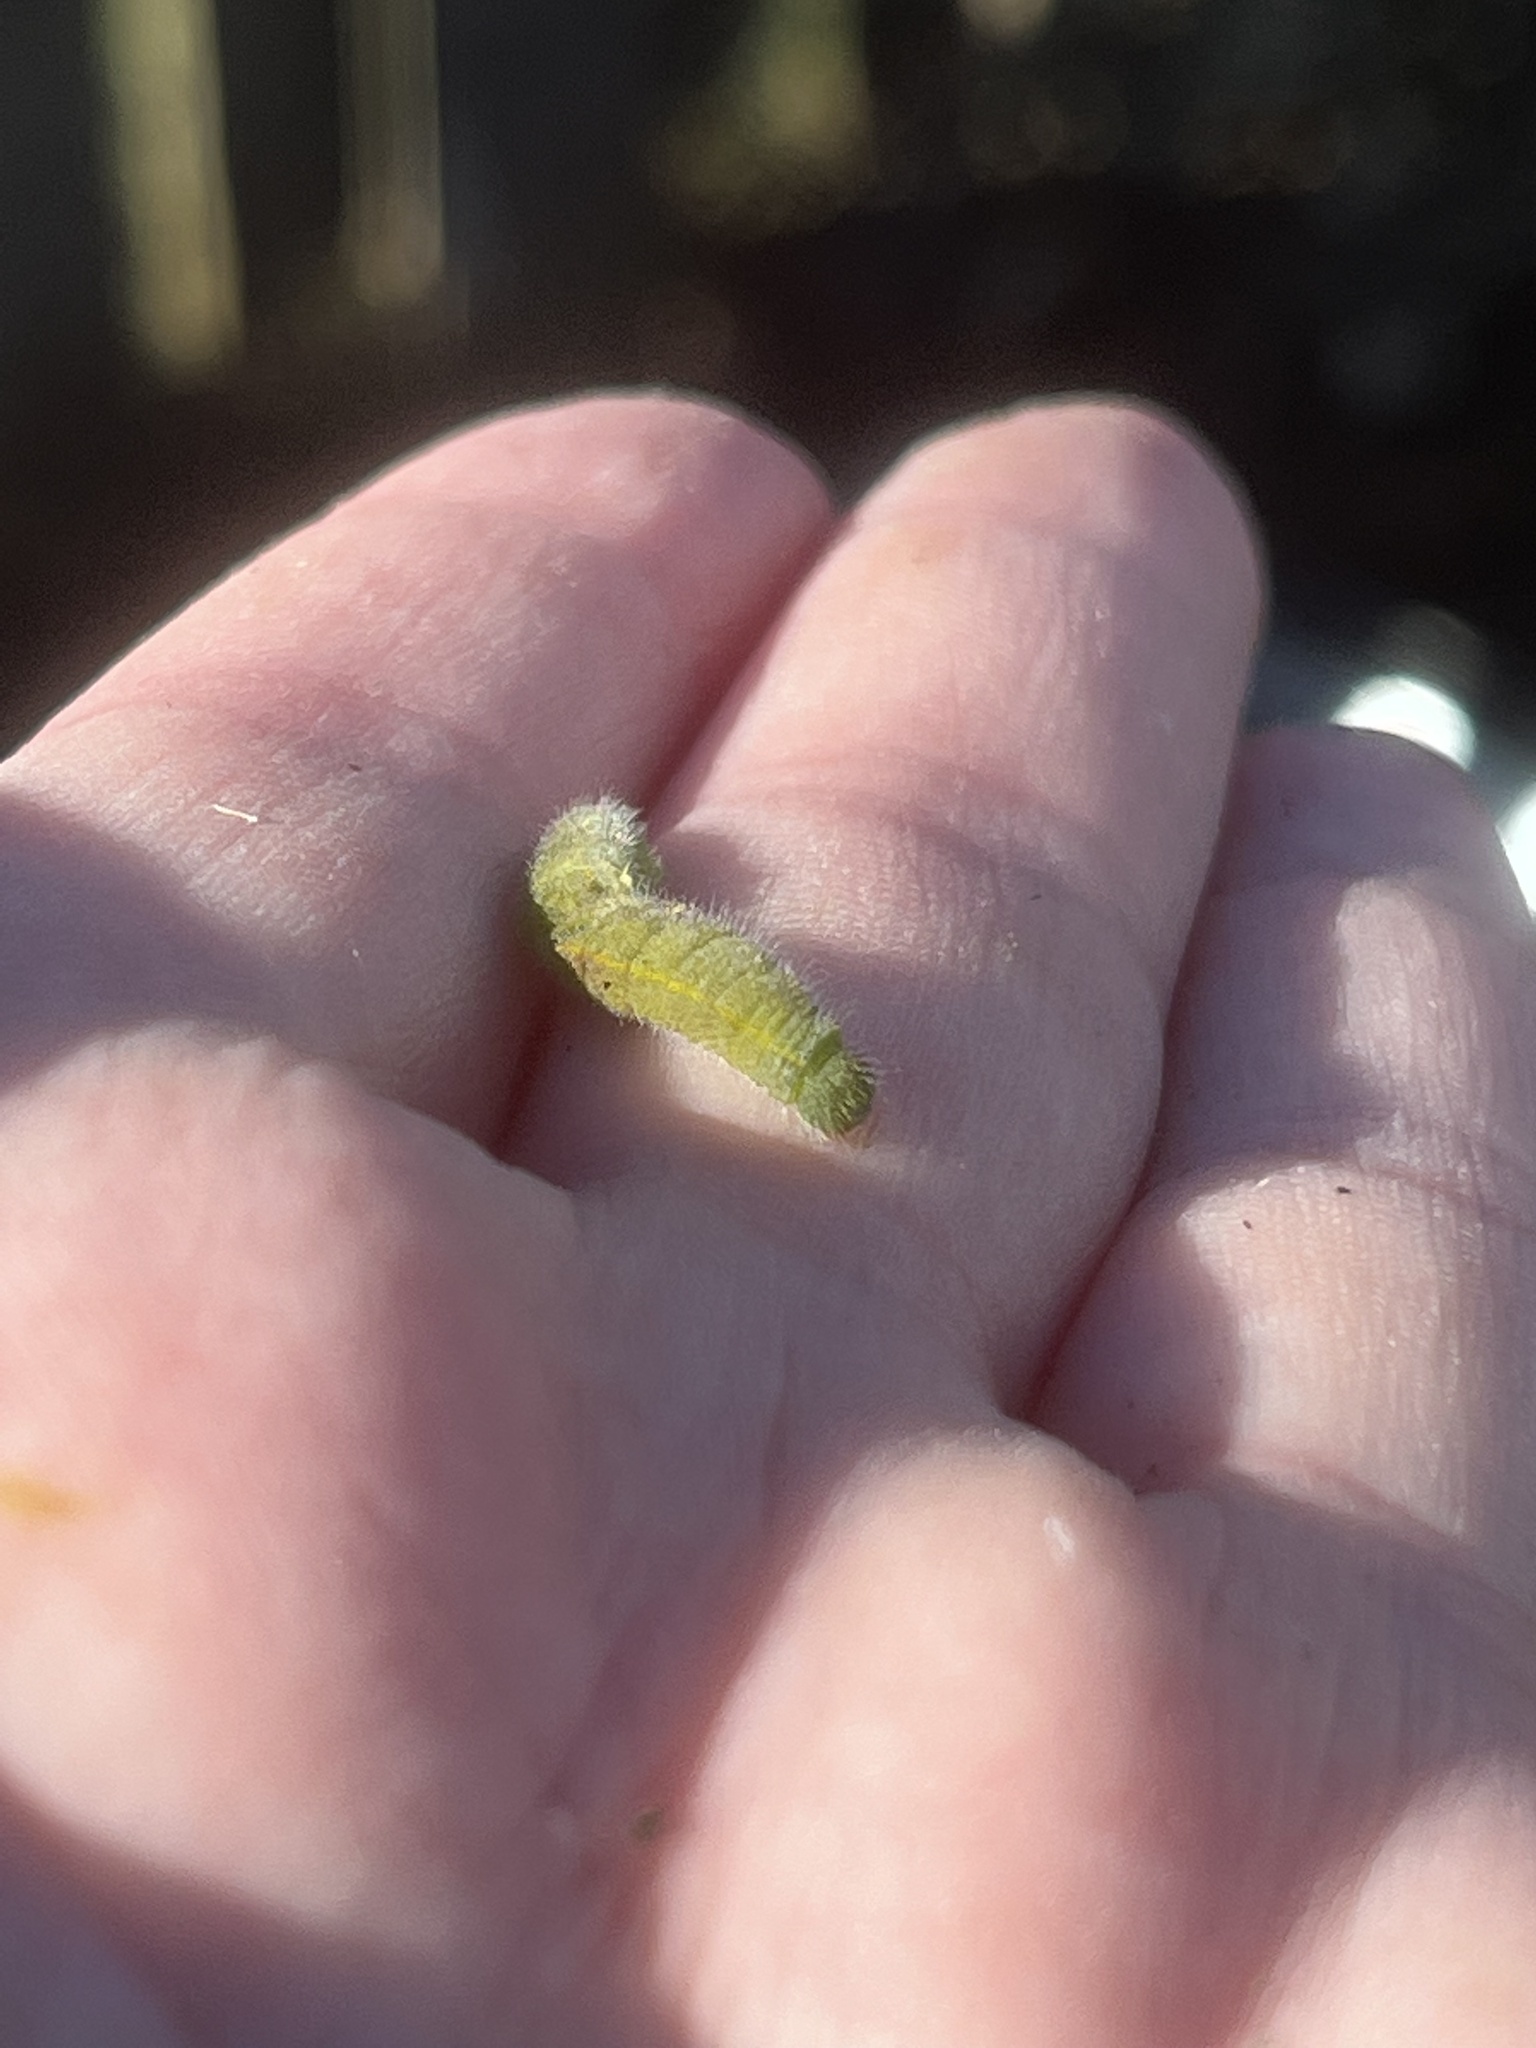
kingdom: Animalia
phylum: Arthropoda
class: Insecta
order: Lepidoptera
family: Pieridae
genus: Pieris
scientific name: Pieris rapae
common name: Small white
